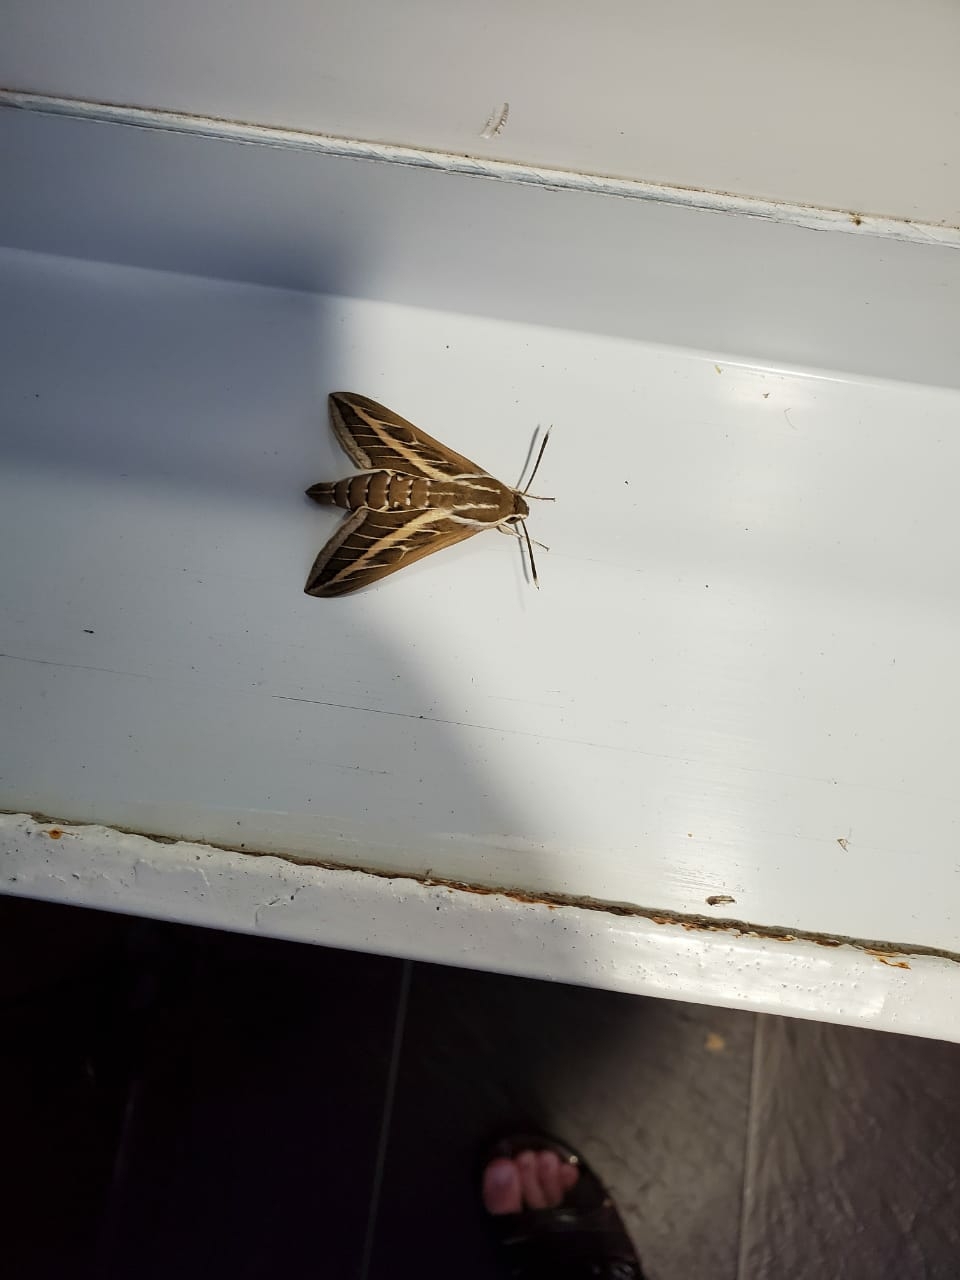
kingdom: Animalia
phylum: Arthropoda
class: Insecta
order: Lepidoptera
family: Sphingidae
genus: Hyles
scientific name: Hyles livornica
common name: Striped hawk-moth
